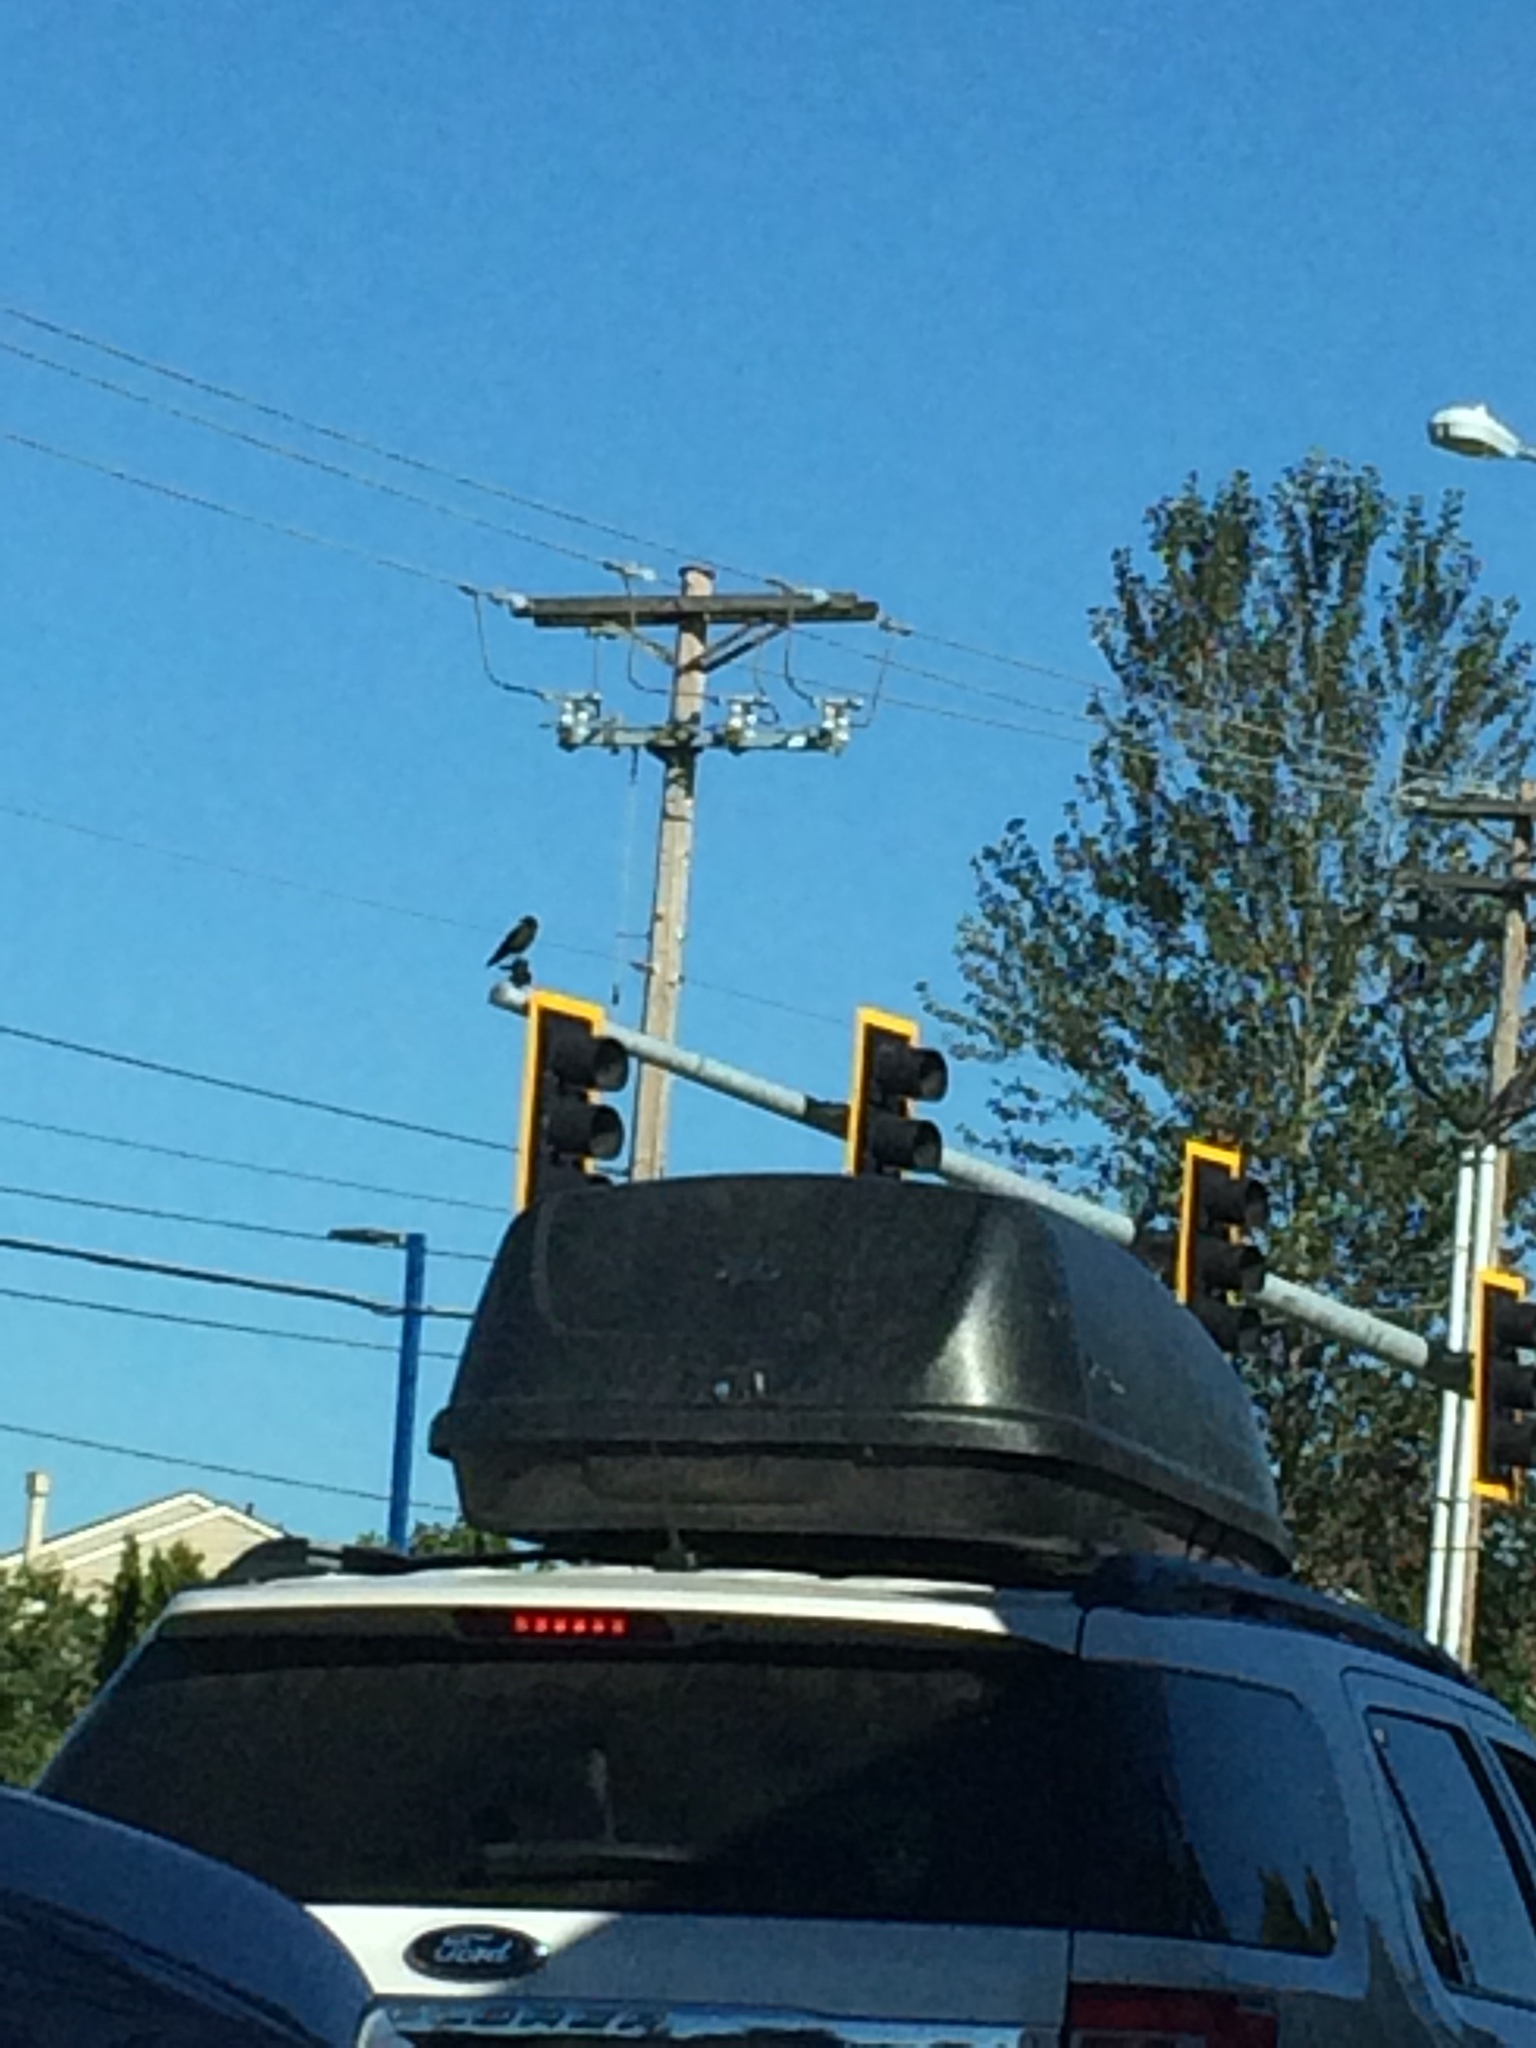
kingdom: Animalia
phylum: Chordata
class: Aves
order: Passeriformes
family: Corvidae
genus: Corvus
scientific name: Corvus brachyrhynchos
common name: American crow
